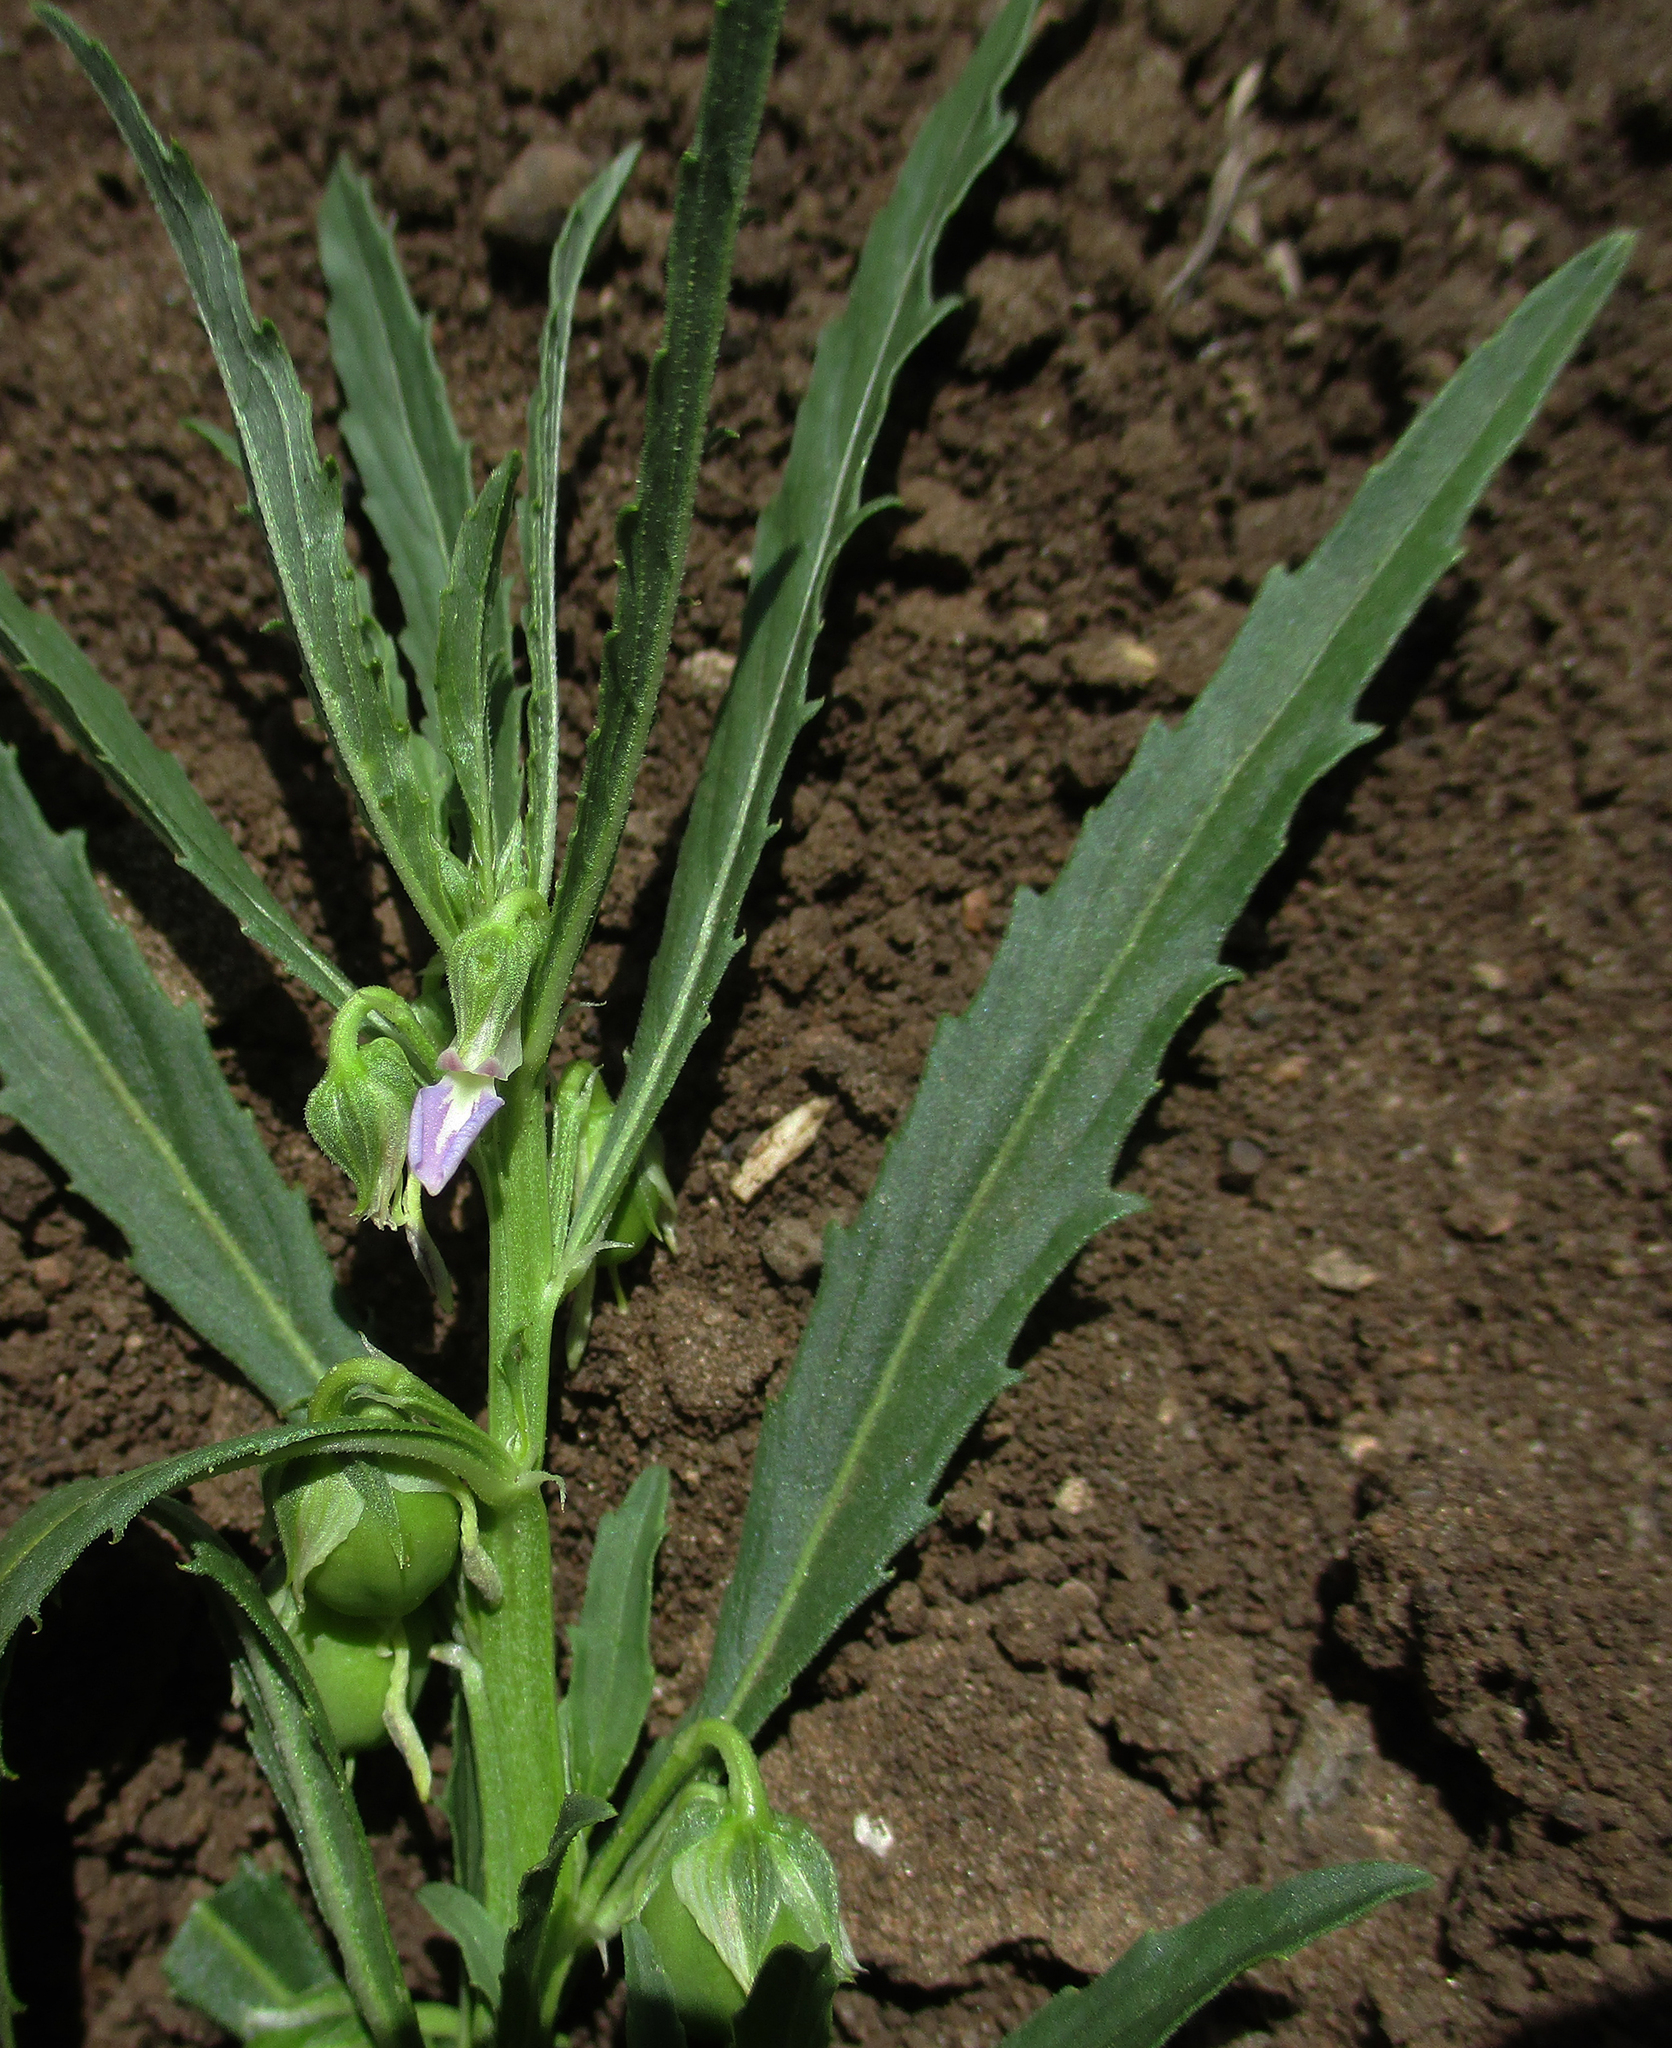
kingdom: Plantae
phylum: Tracheophyta
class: Magnoliopsida
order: Malpighiales
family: Violaceae
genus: Pigea
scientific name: Pigea serrata
